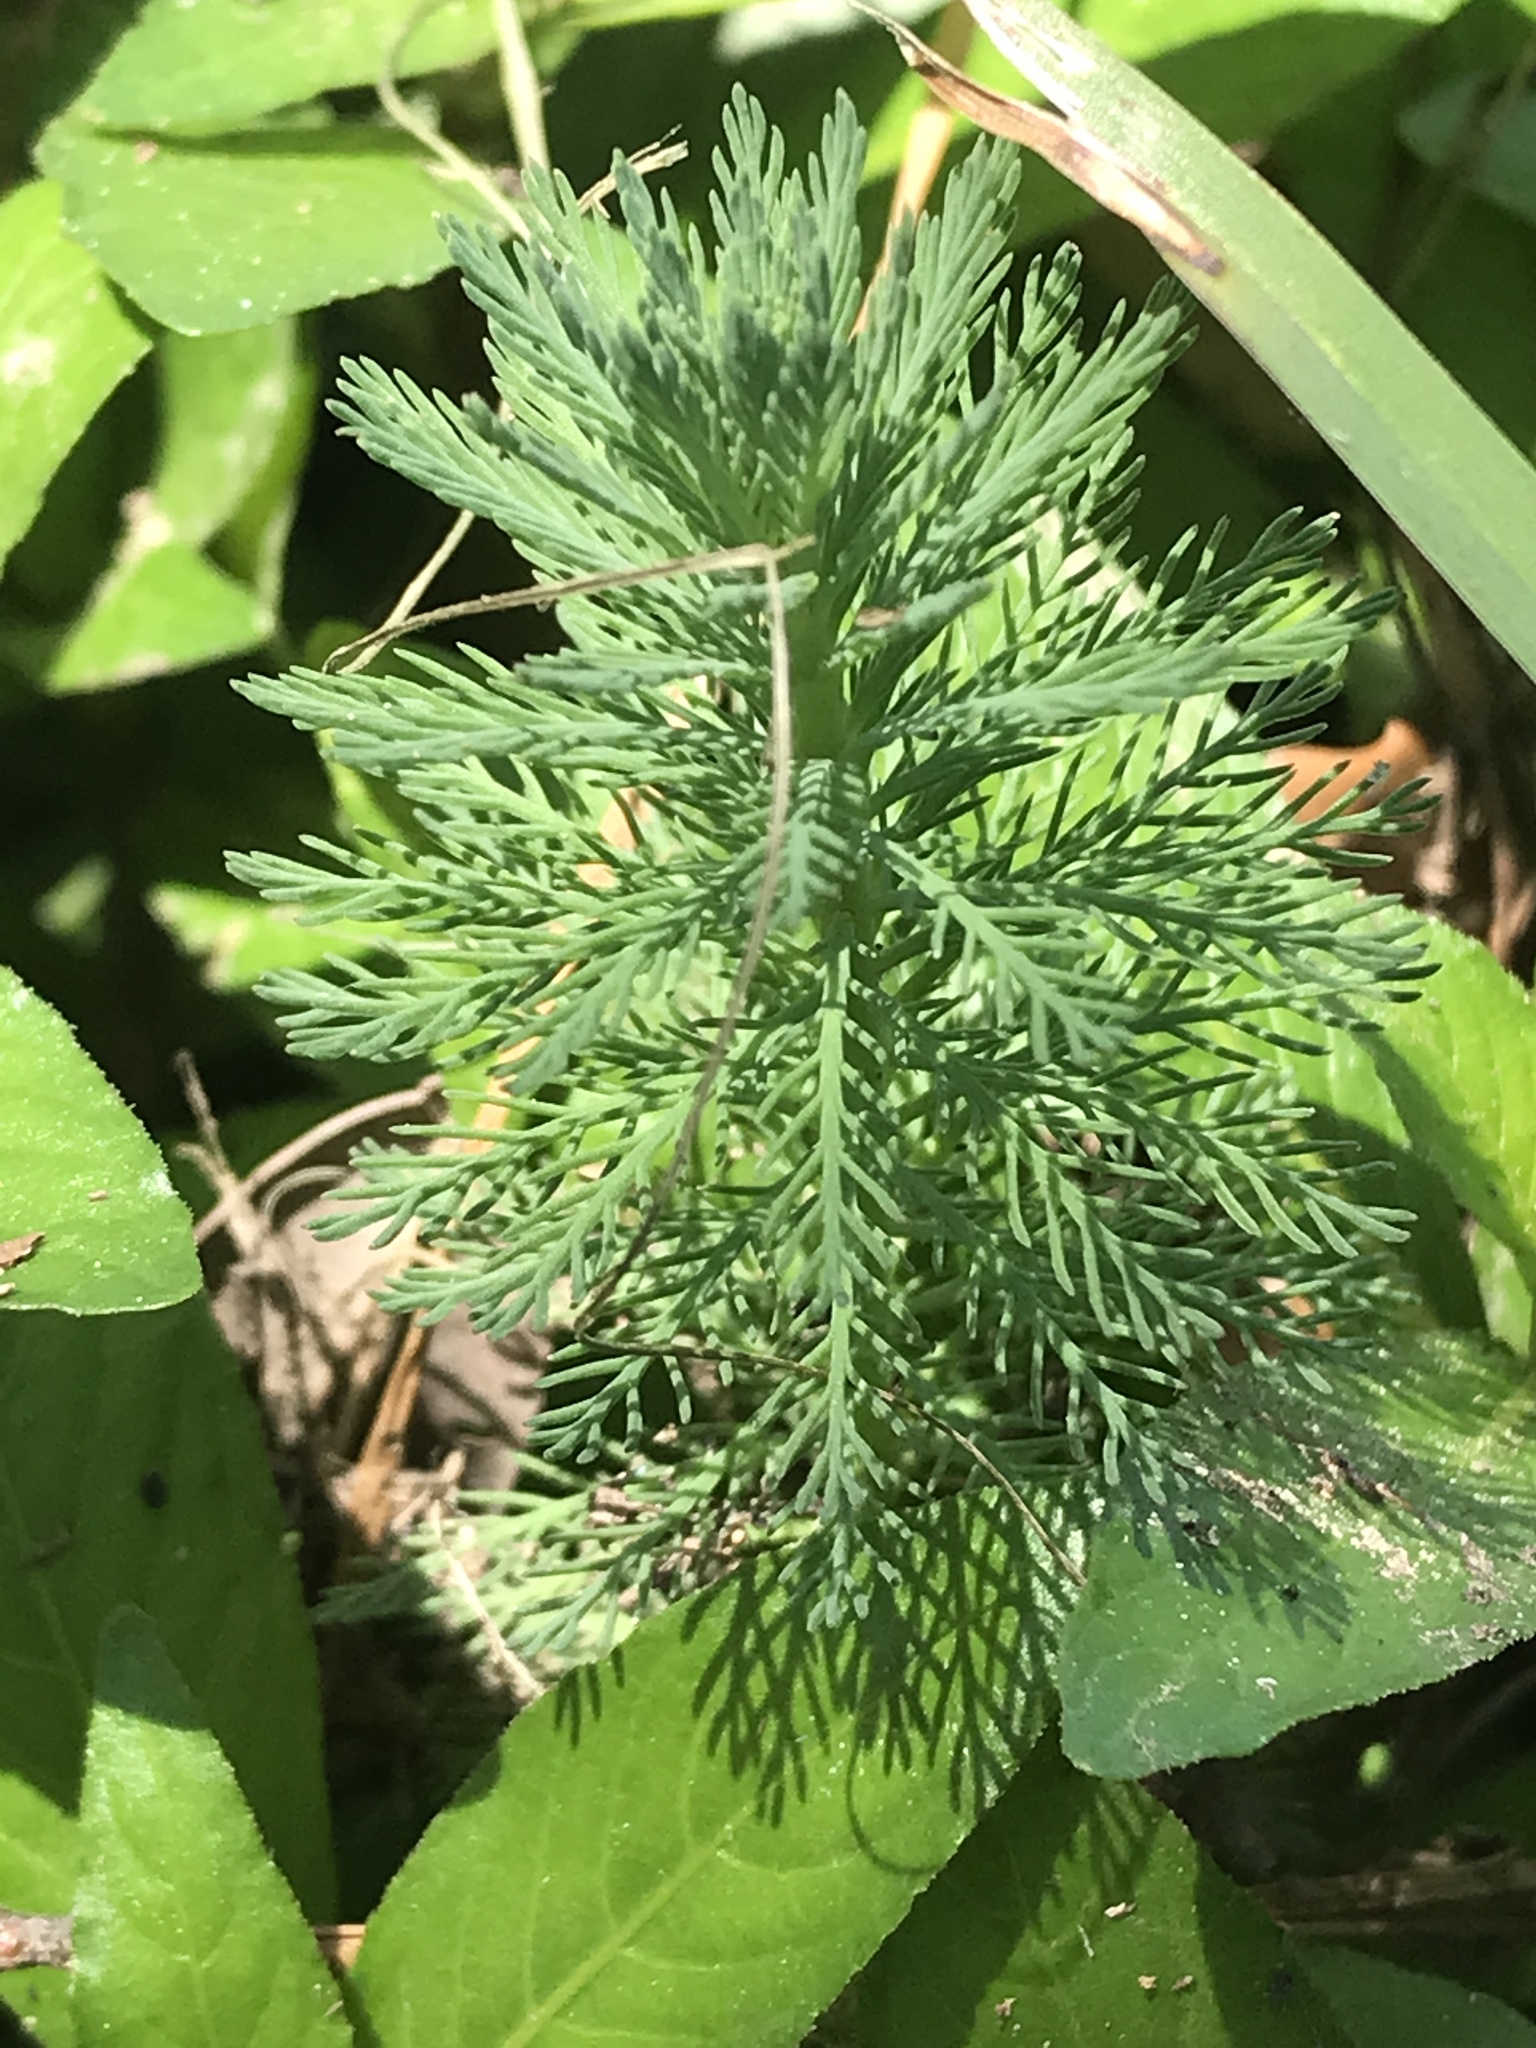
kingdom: Plantae
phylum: Tracheophyta
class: Magnoliopsida
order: Saxifragales
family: Haloragaceae
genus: Myriophyllum
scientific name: Myriophyllum aquaticum
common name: Parrot's feather
